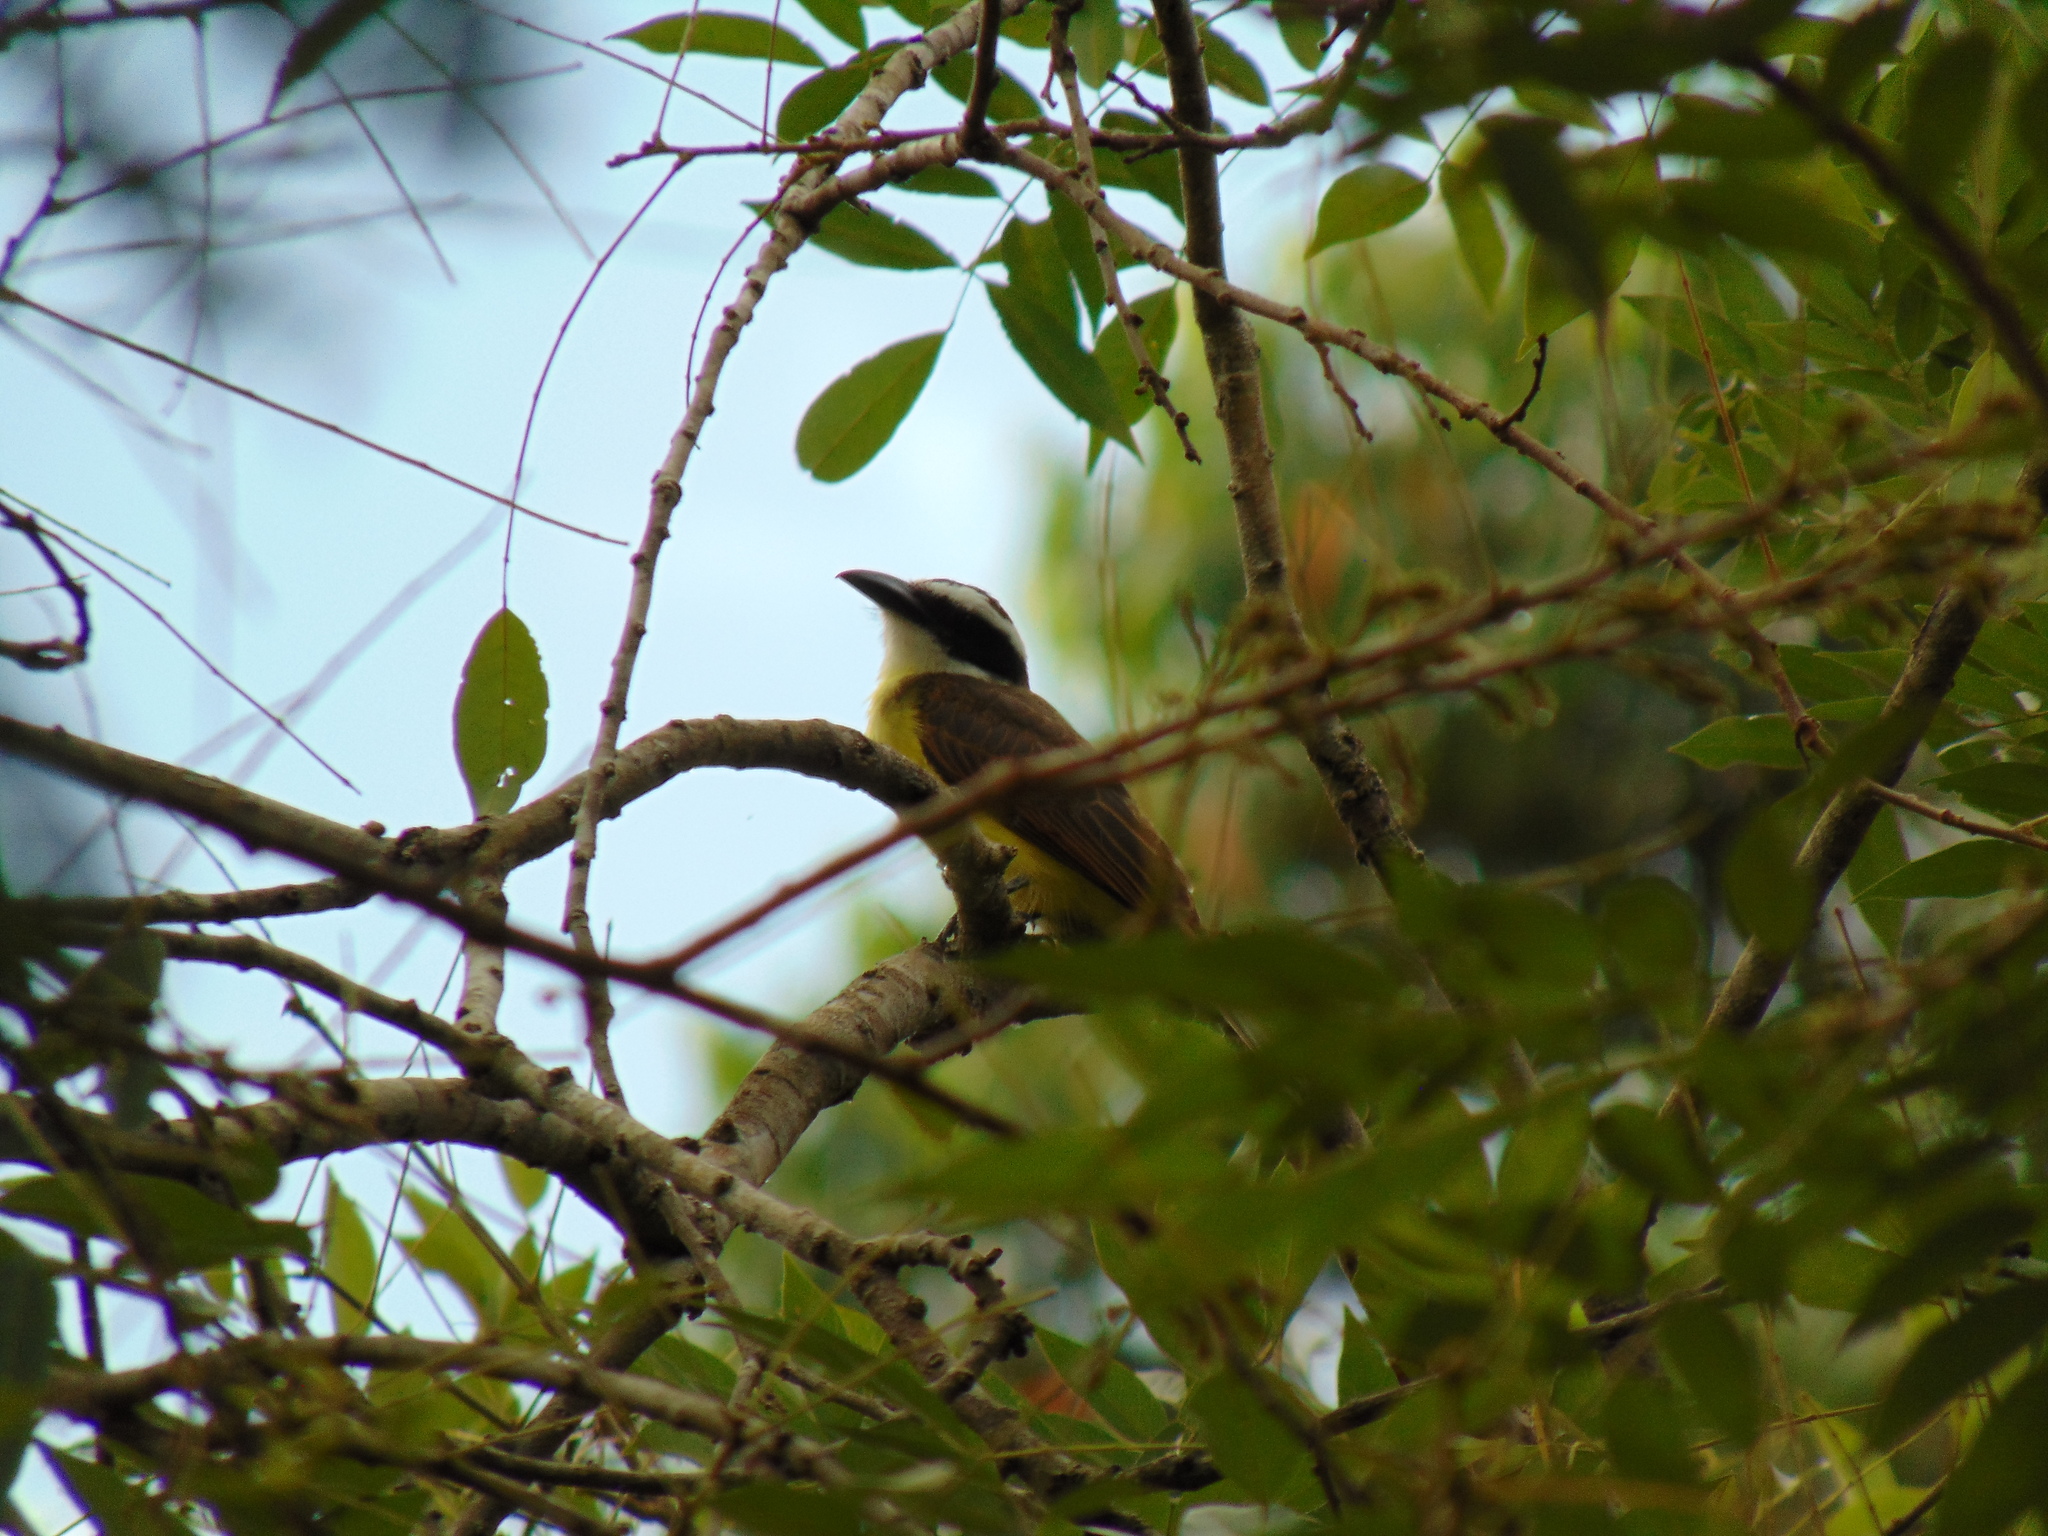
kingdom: Animalia
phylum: Chordata
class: Aves
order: Passeriformes
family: Tyrannidae
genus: Megarynchus
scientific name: Megarynchus pitangua
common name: Boat-billed flycatcher
